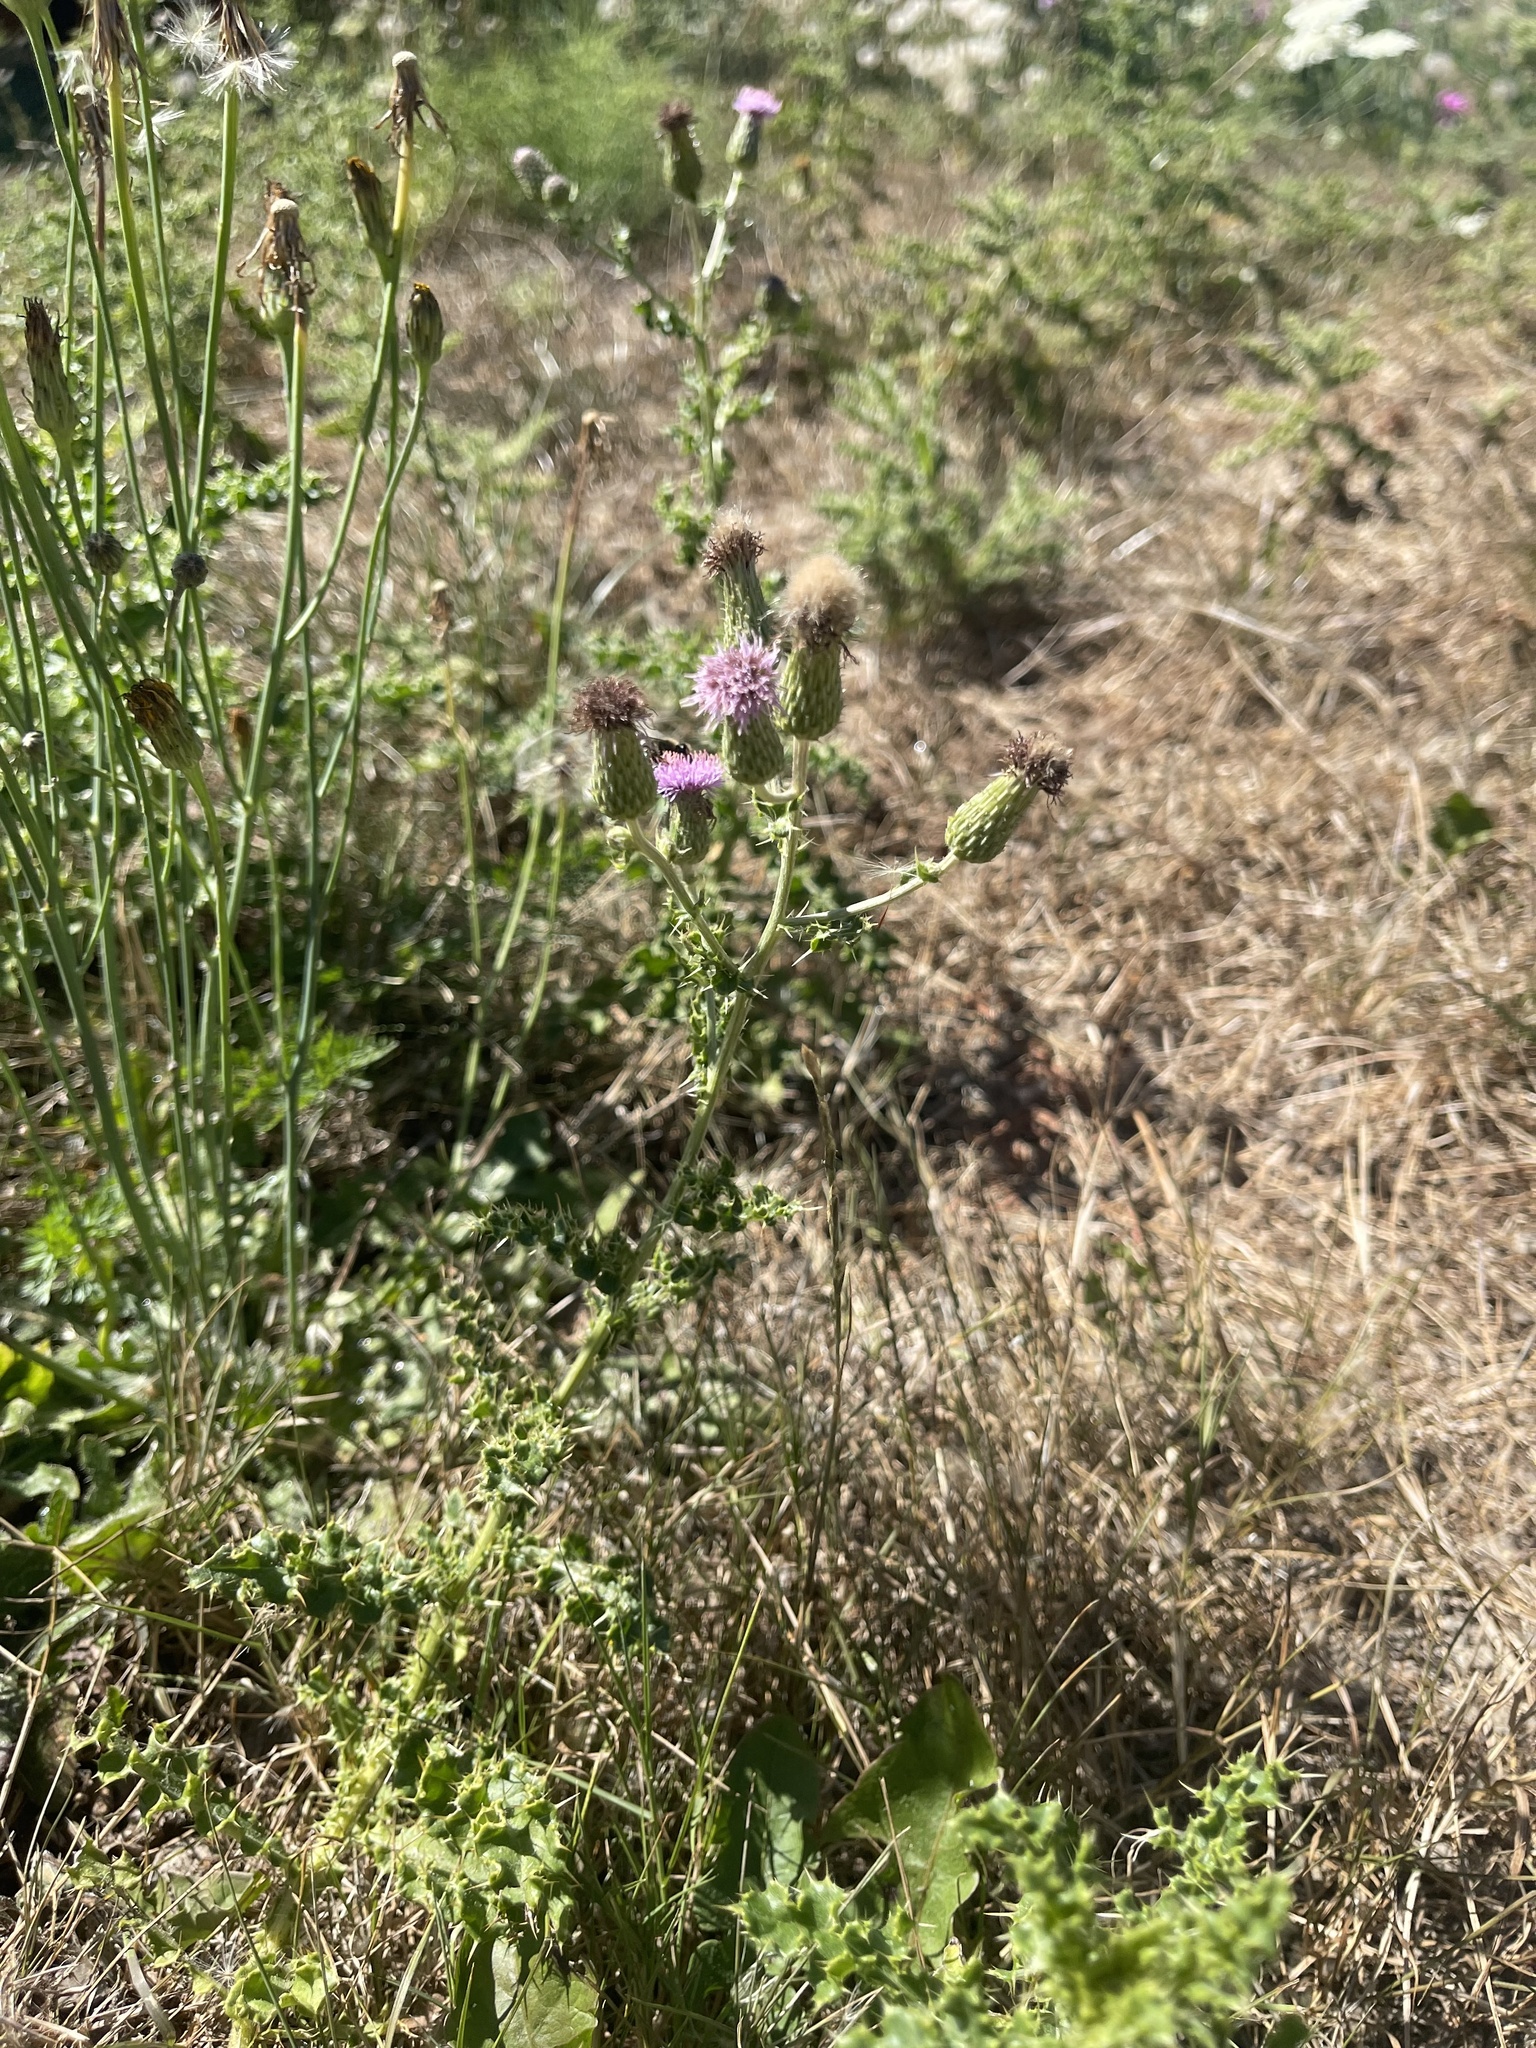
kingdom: Plantae
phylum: Tracheophyta
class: Magnoliopsida
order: Asterales
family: Asteraceae
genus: Cirsium
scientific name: Cirsium arvense
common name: Creeping thistle
